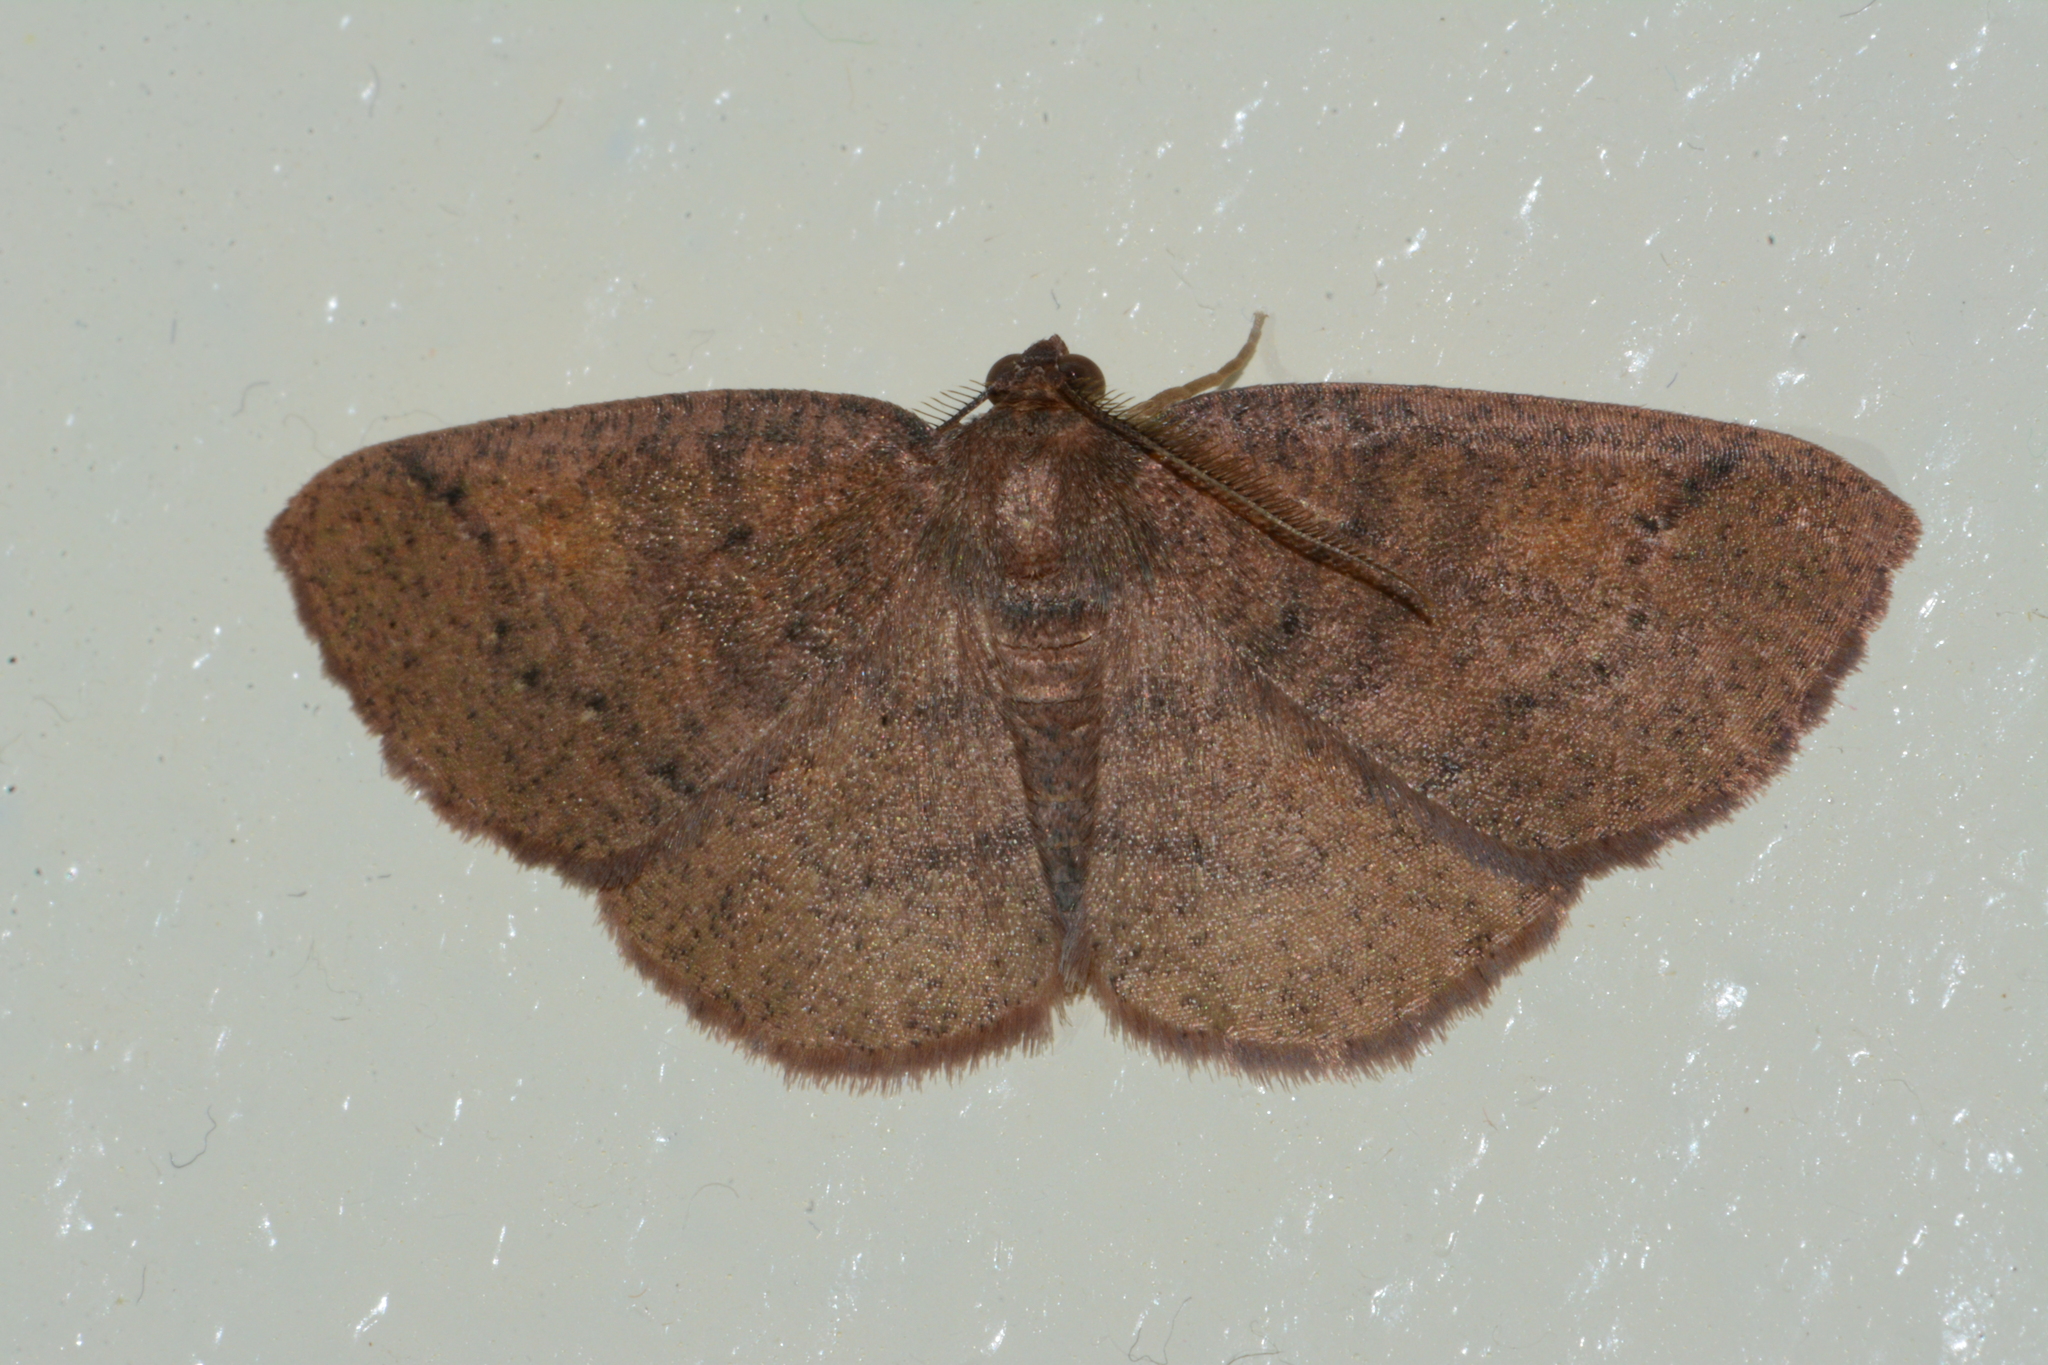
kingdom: Animalia
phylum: Arthropoda
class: Insecta
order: Lepidoptera
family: Geometridae
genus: Ilexia
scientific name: Ilexia intractata
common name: Black-dotted ruddy moth
